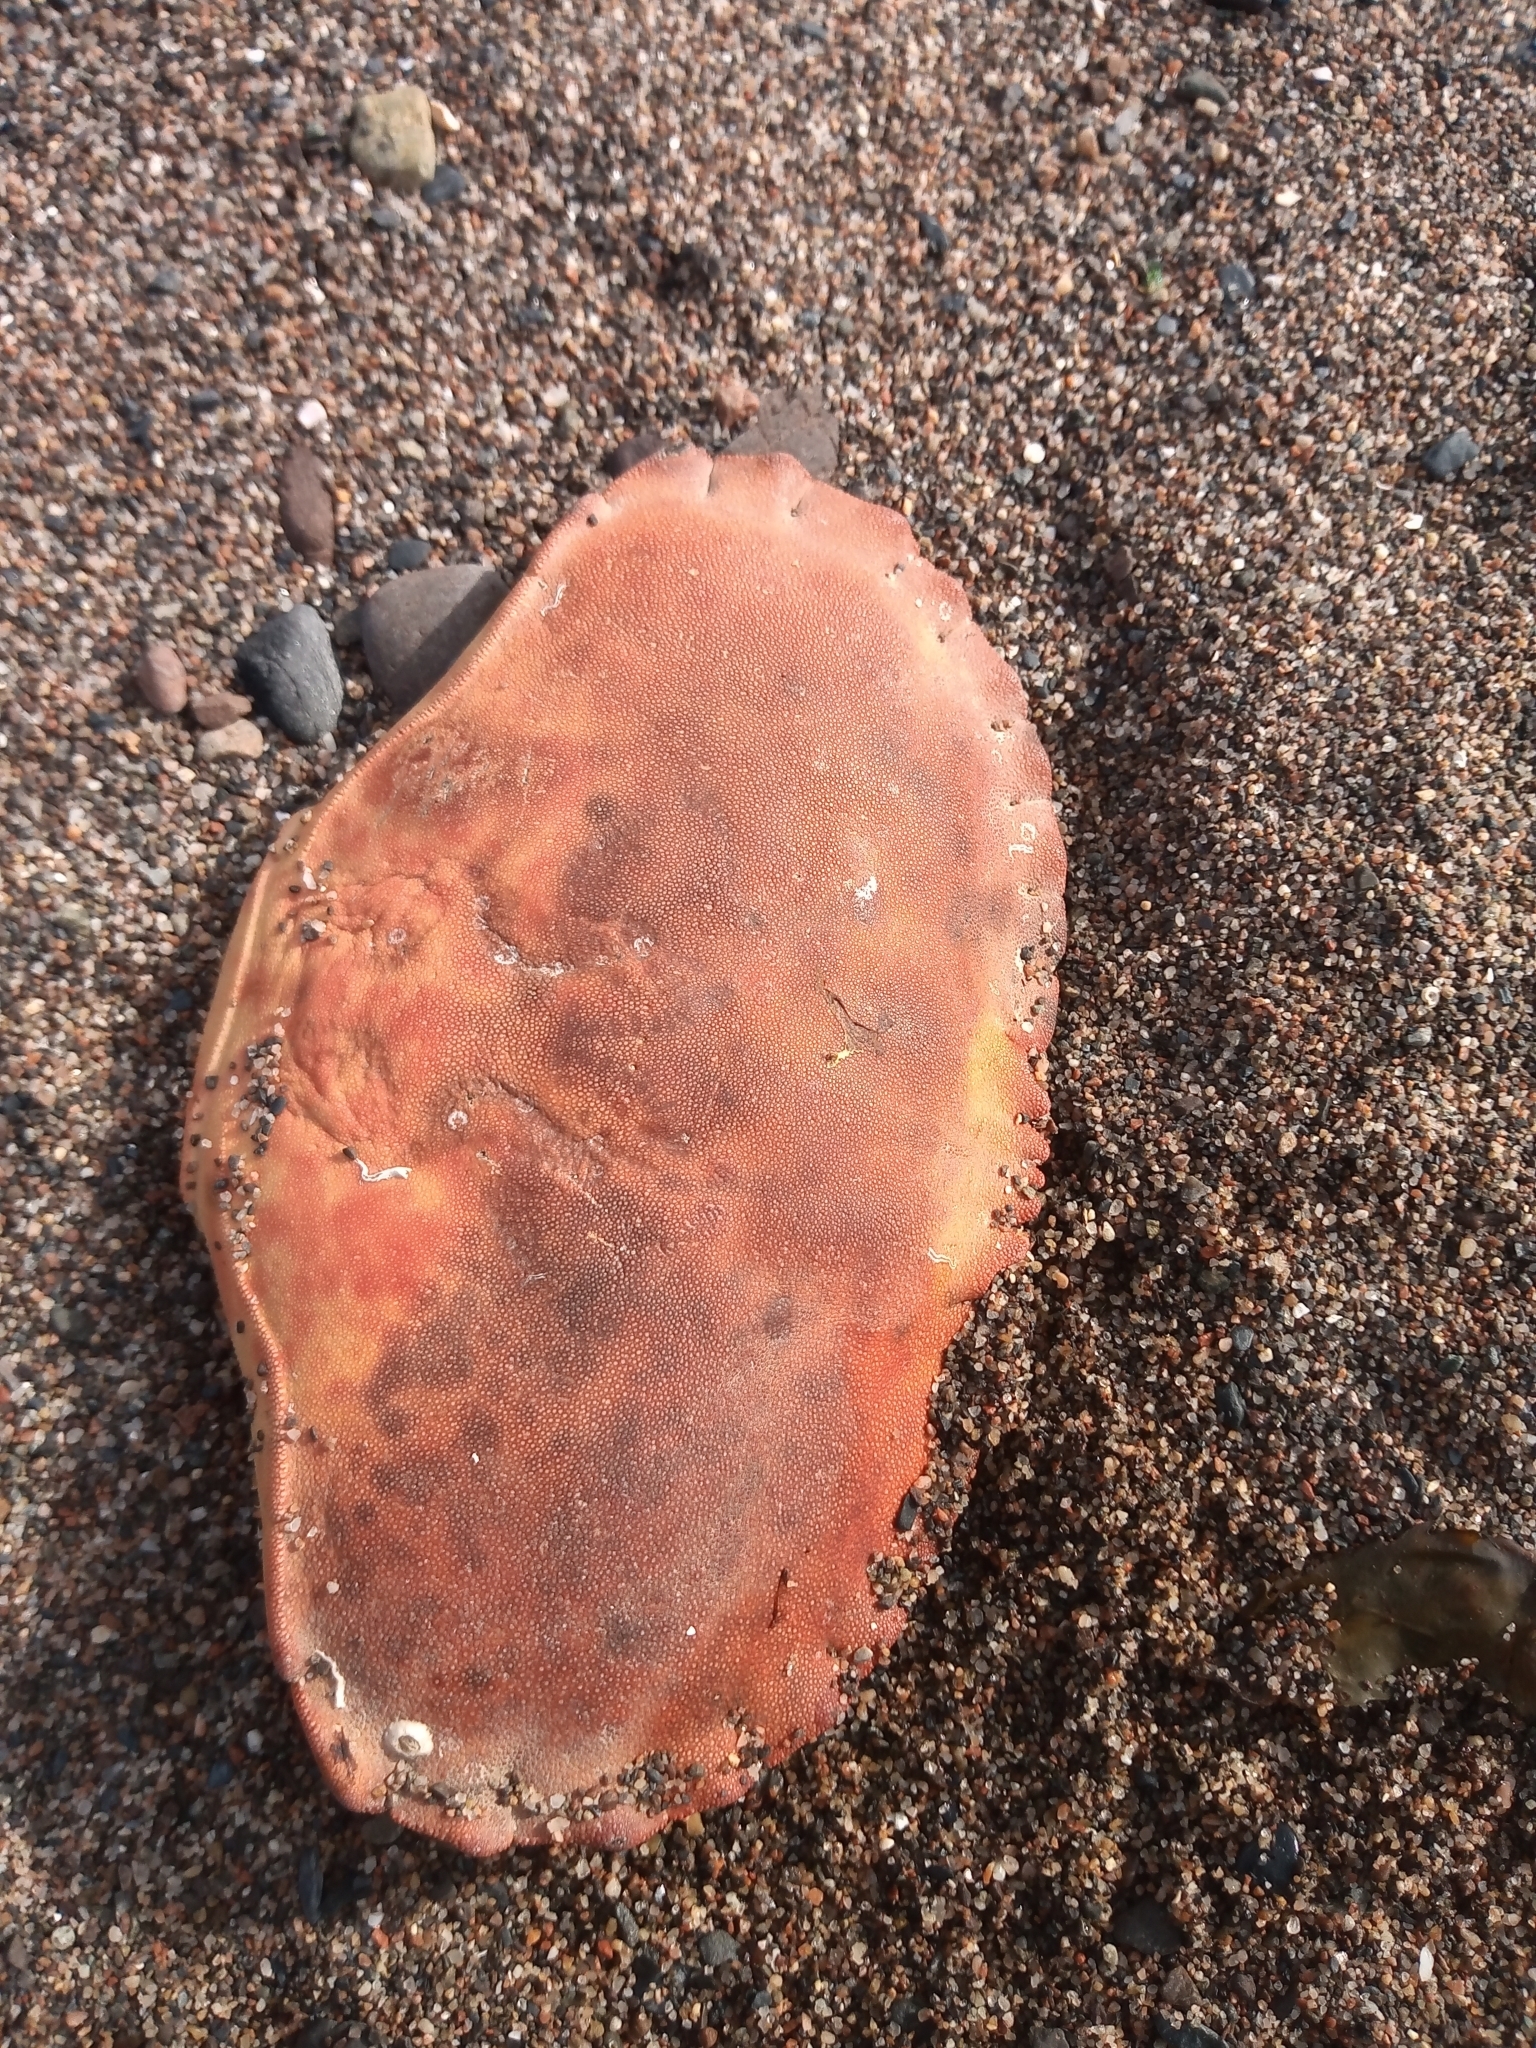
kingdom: Animalia
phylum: Arthropoda
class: Malacostraca
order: Decapoda
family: Cancridae
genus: Cancer
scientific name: Cancer pagurus
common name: Edible crab
